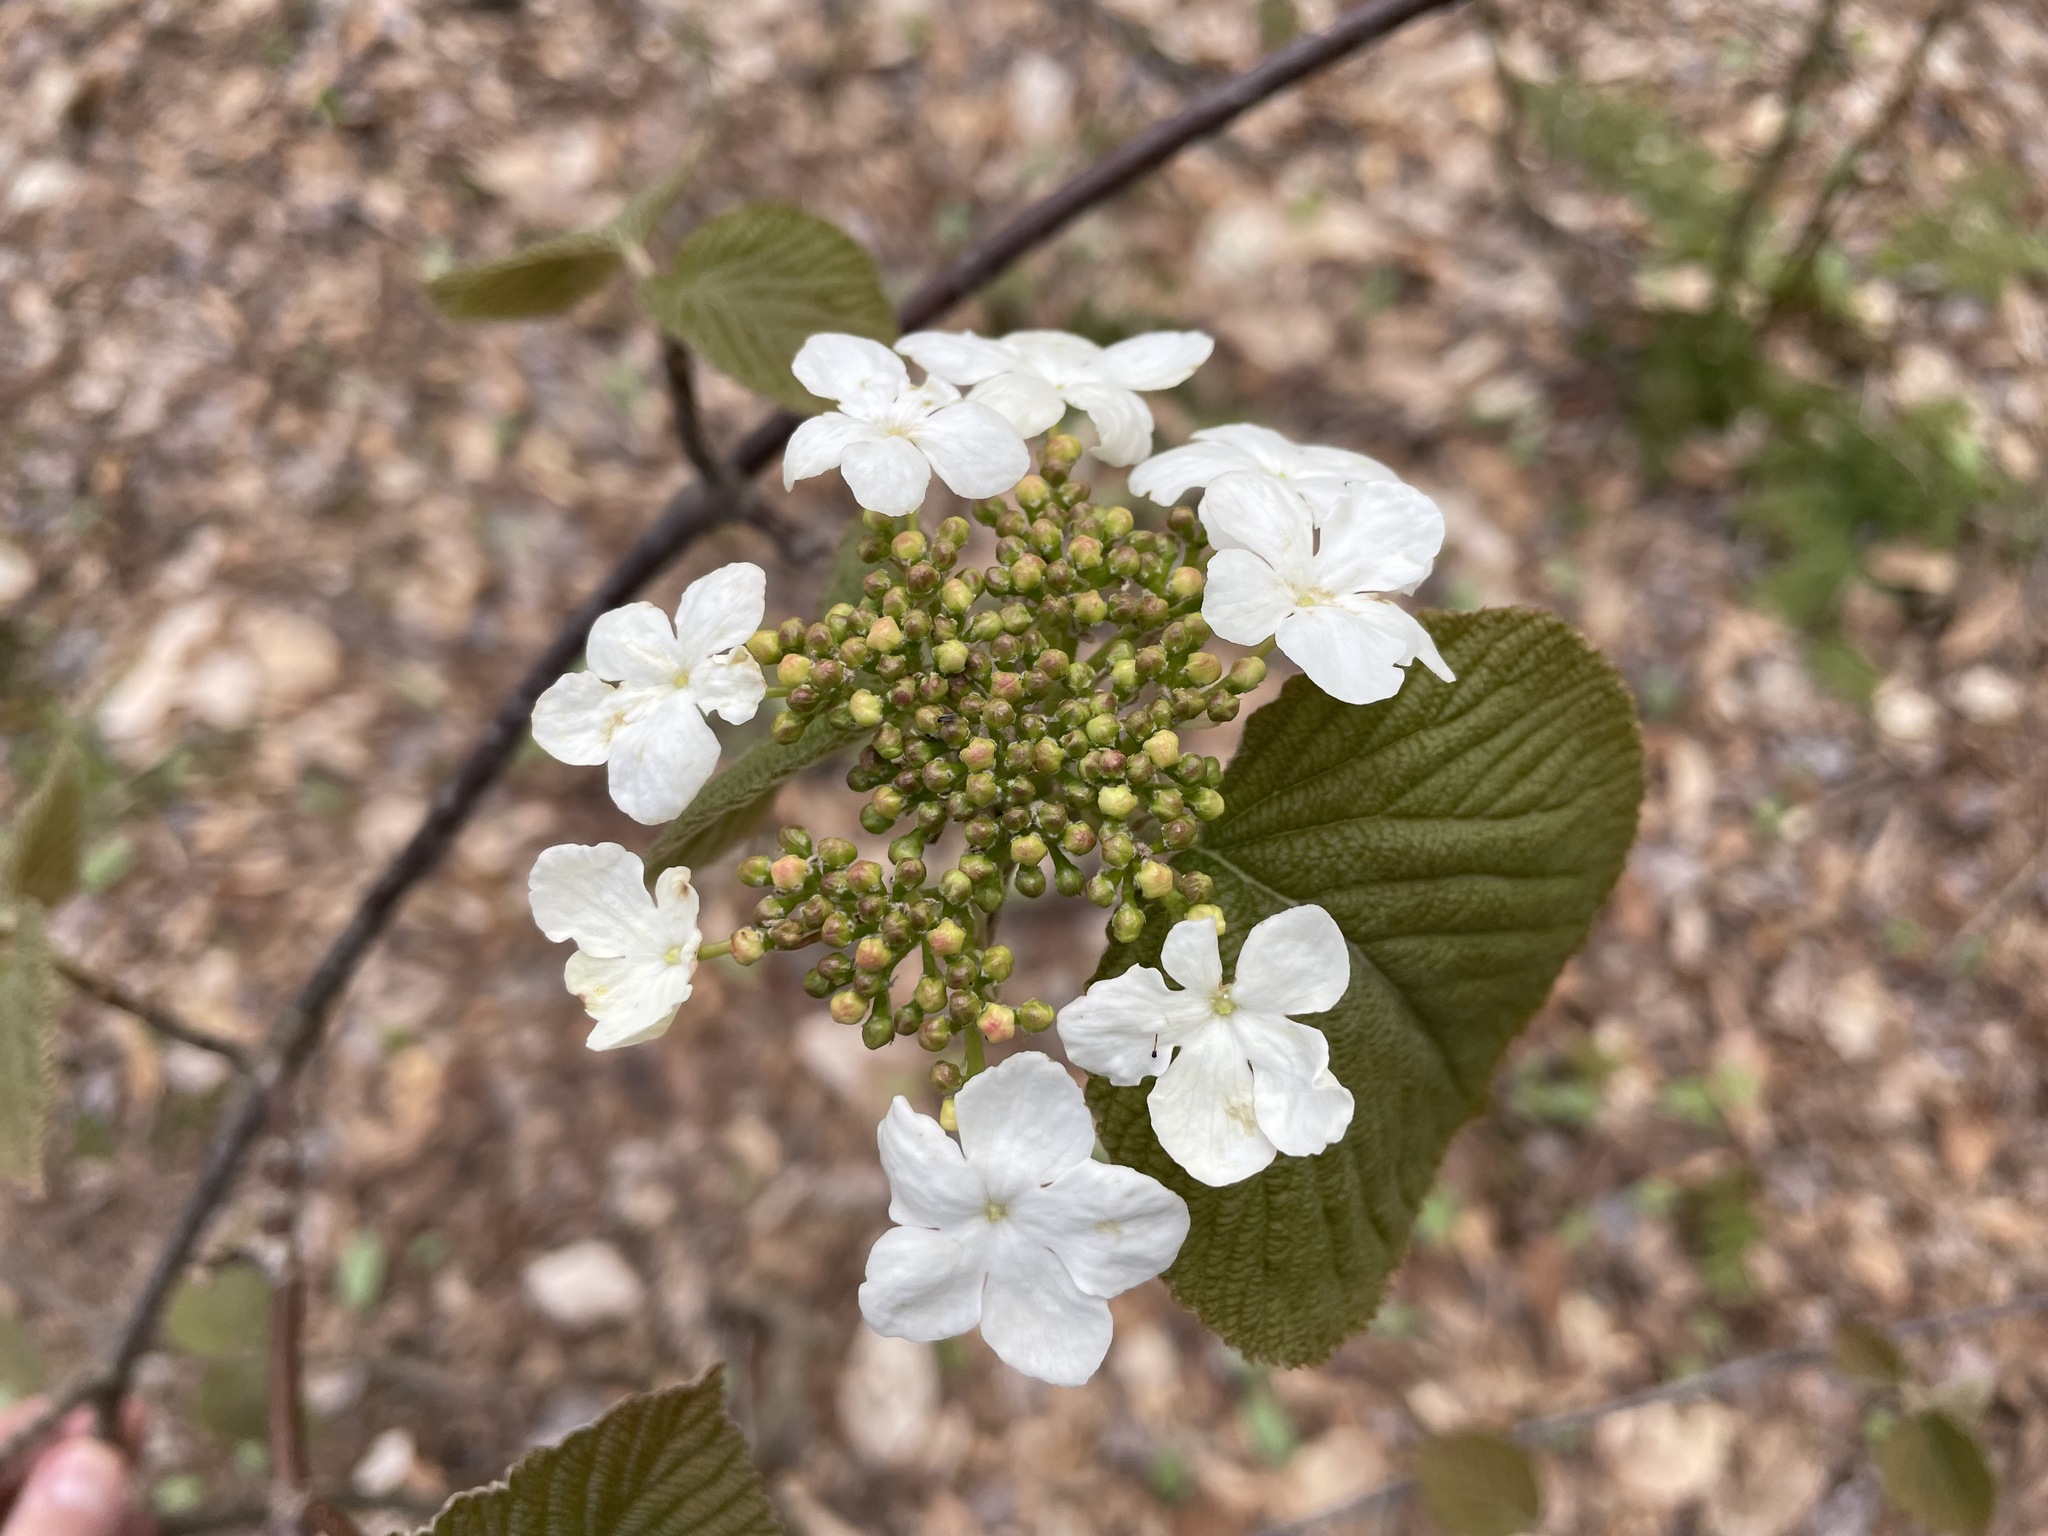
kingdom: Plantae
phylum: Tracheophyta
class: Magnoliopsida
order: Dipsacales
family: Viburnaceae
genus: Viburnum
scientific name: Viburnum lantanoides
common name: Hobblebush
